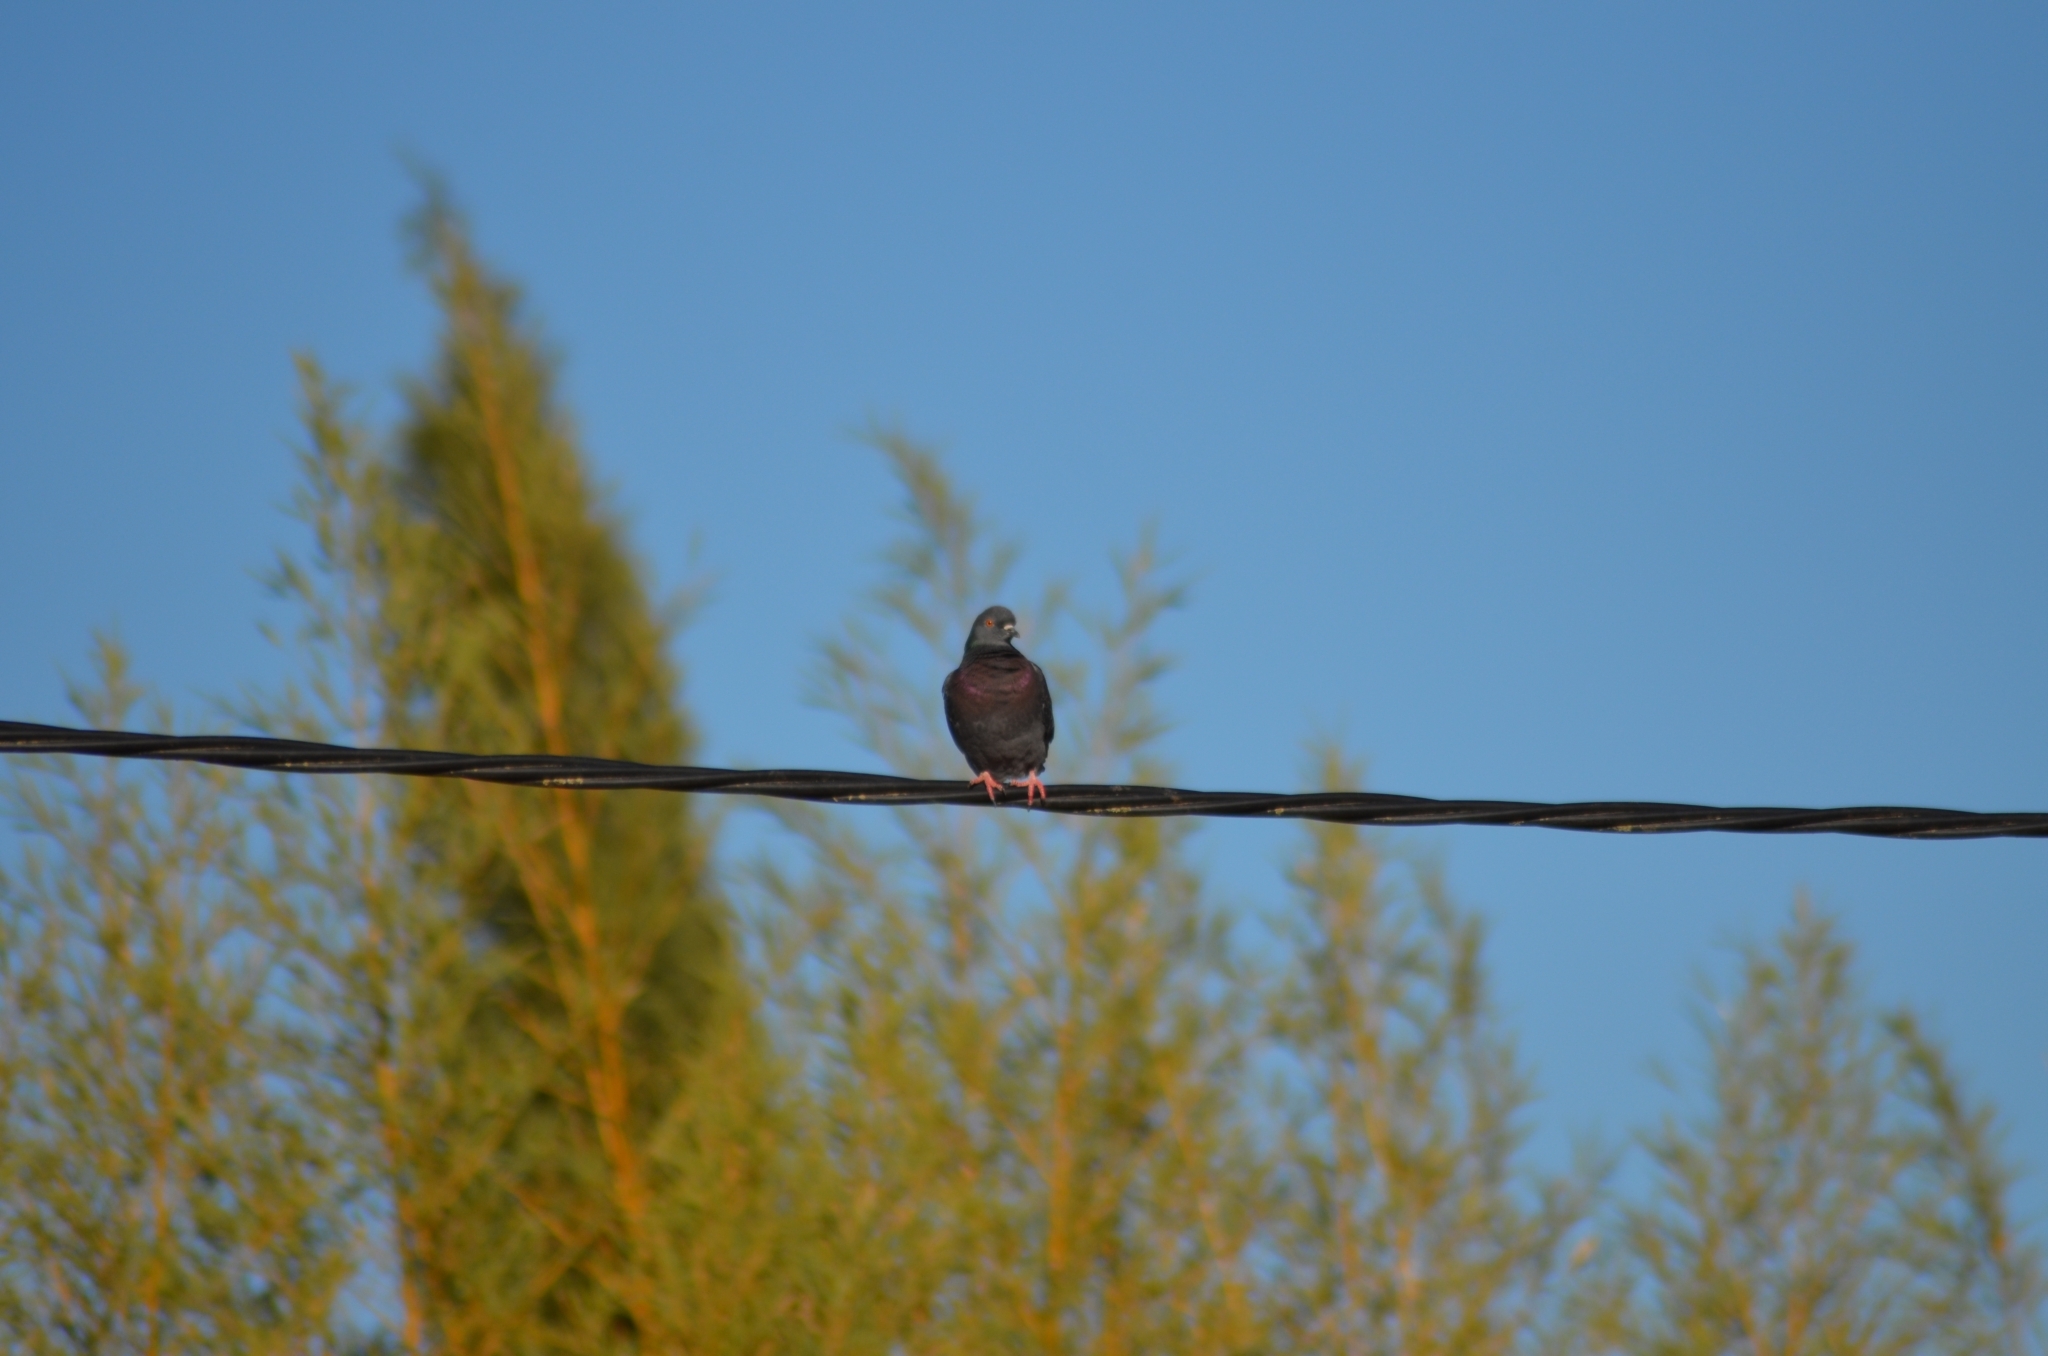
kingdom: Animalia
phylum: Chordata
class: Aves
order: Columbiformes
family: Columbidae
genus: Columba
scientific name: Columba livia
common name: Rock pigeon
